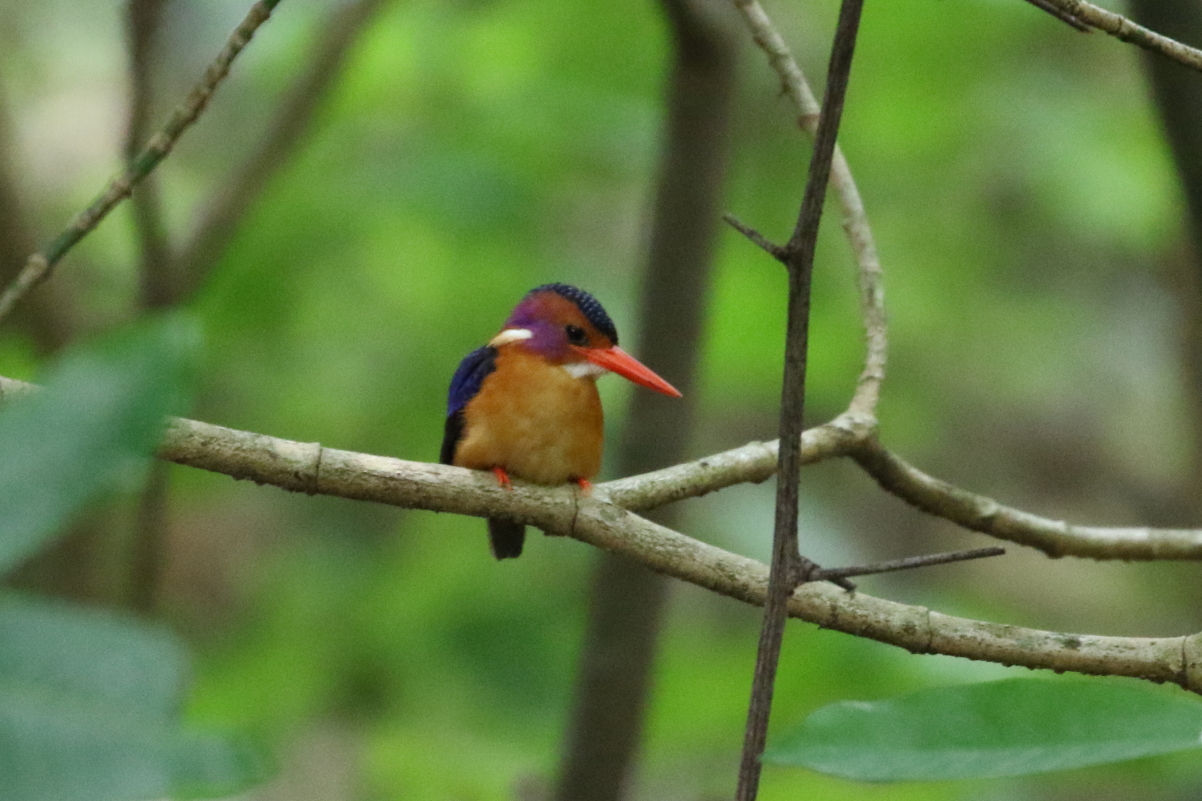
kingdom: Animalia
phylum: Chordata
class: Aves
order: Coraciiformes
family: Alcedinidae
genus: Ispidina
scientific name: Ispidina picta
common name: African pygmy-kingfisher
